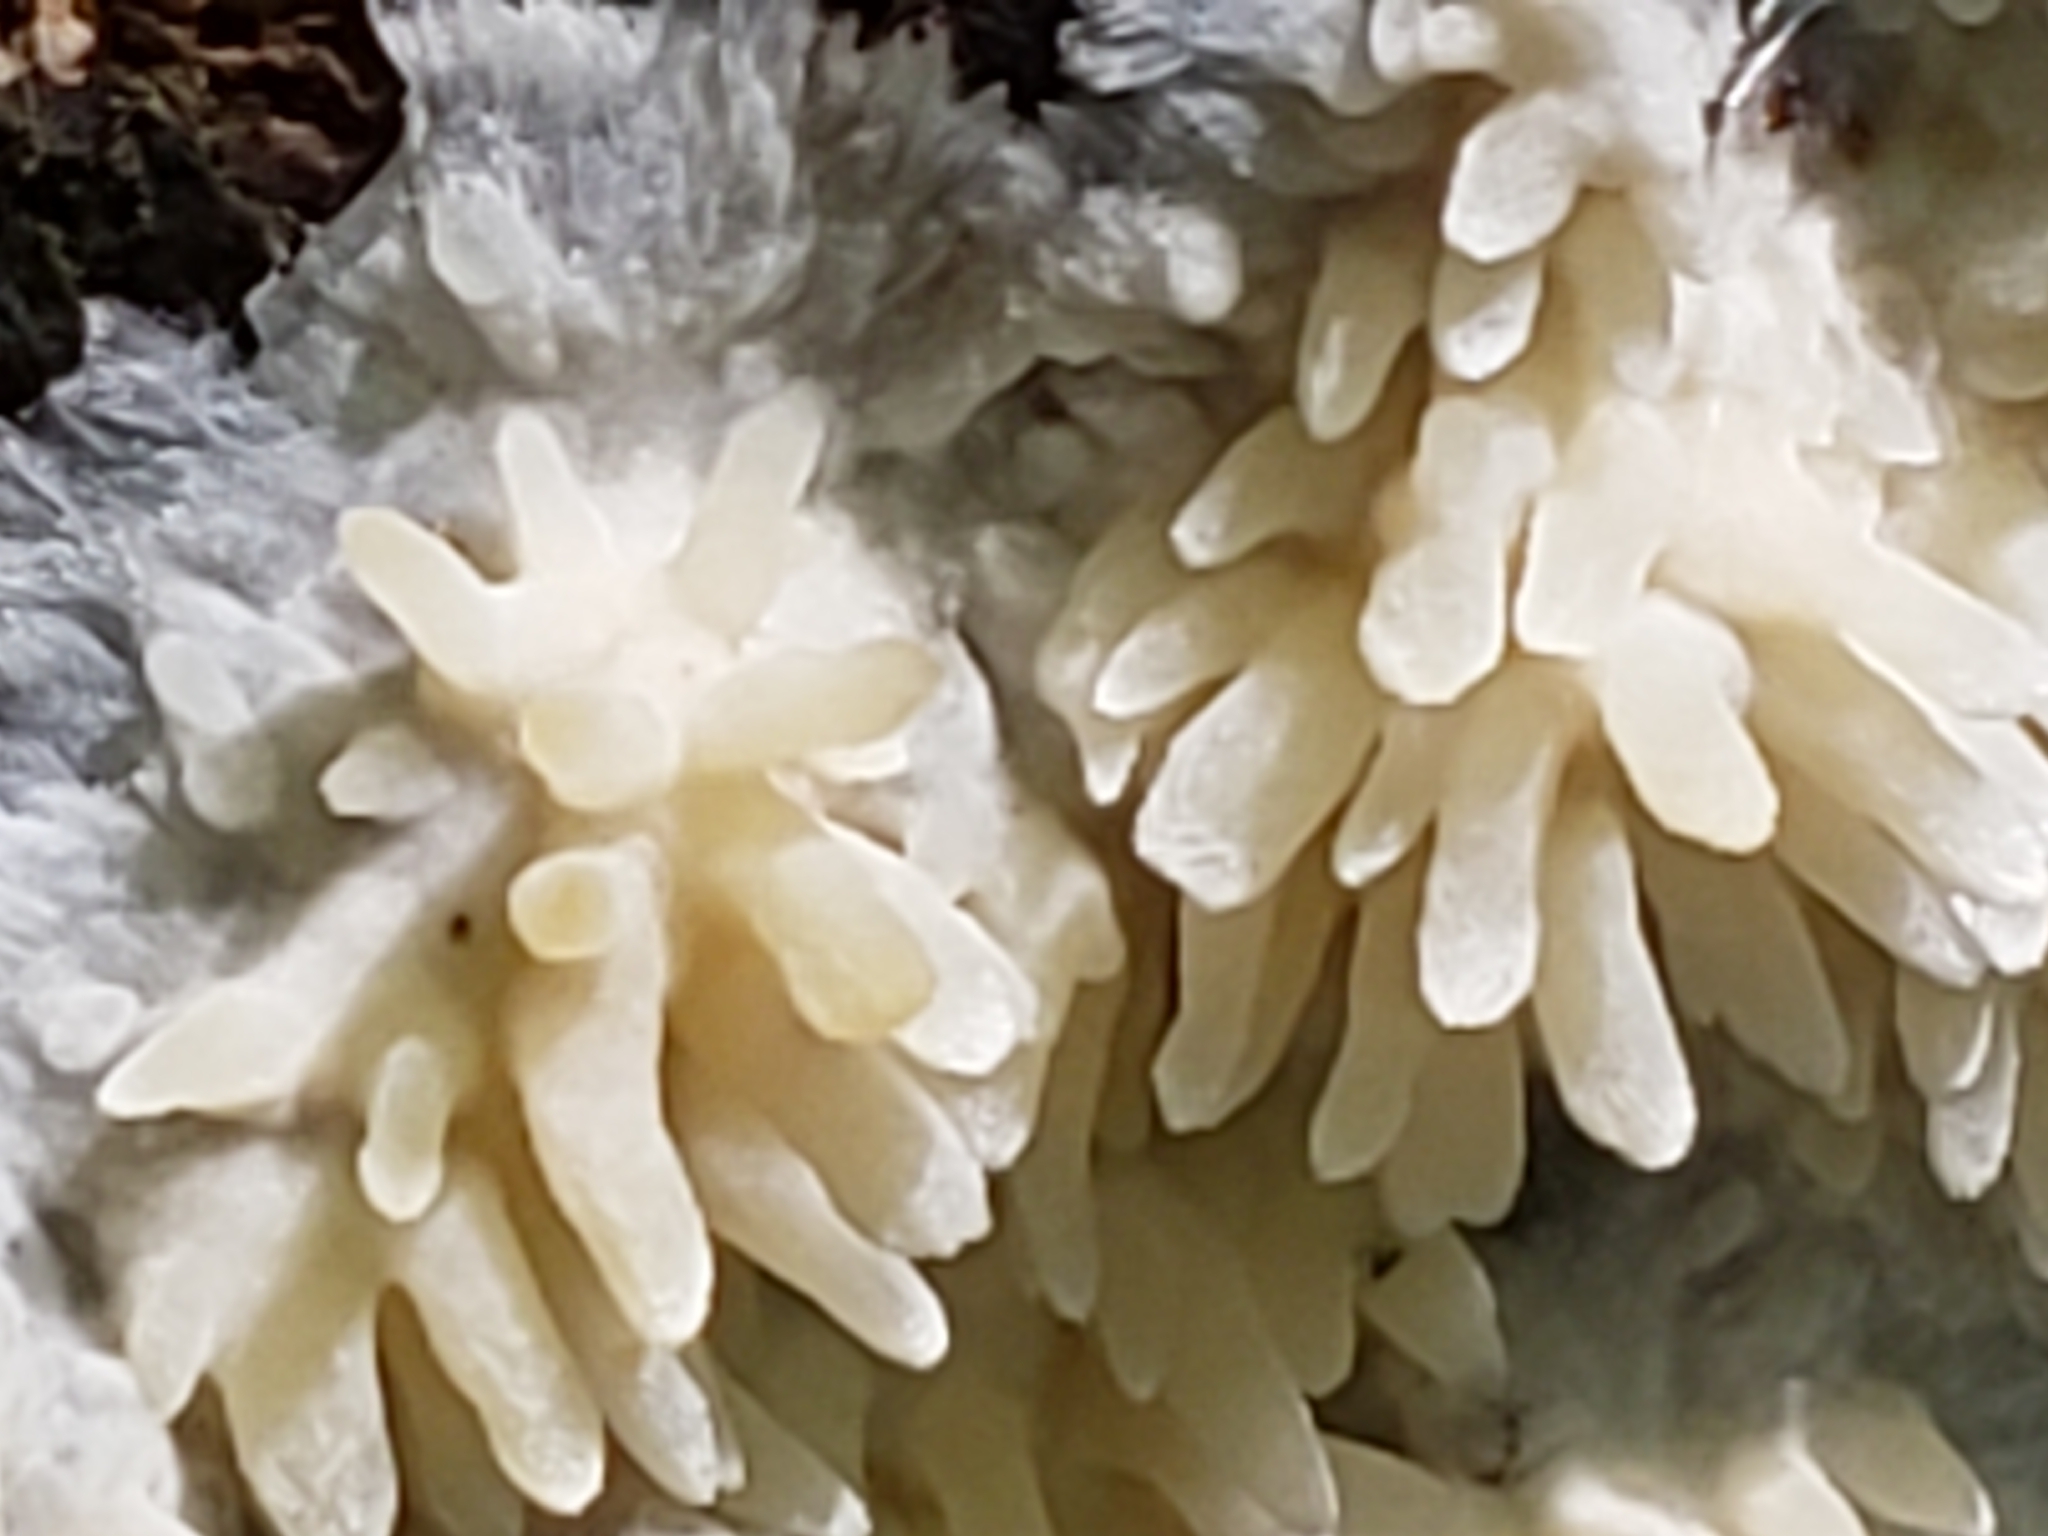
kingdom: Fungi
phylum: Basidiomycota
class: Agaricomycetes
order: Agaricales
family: Radulomycetaceae
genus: Radulomyces
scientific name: Radulomyces copelandii
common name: Asian beauty
